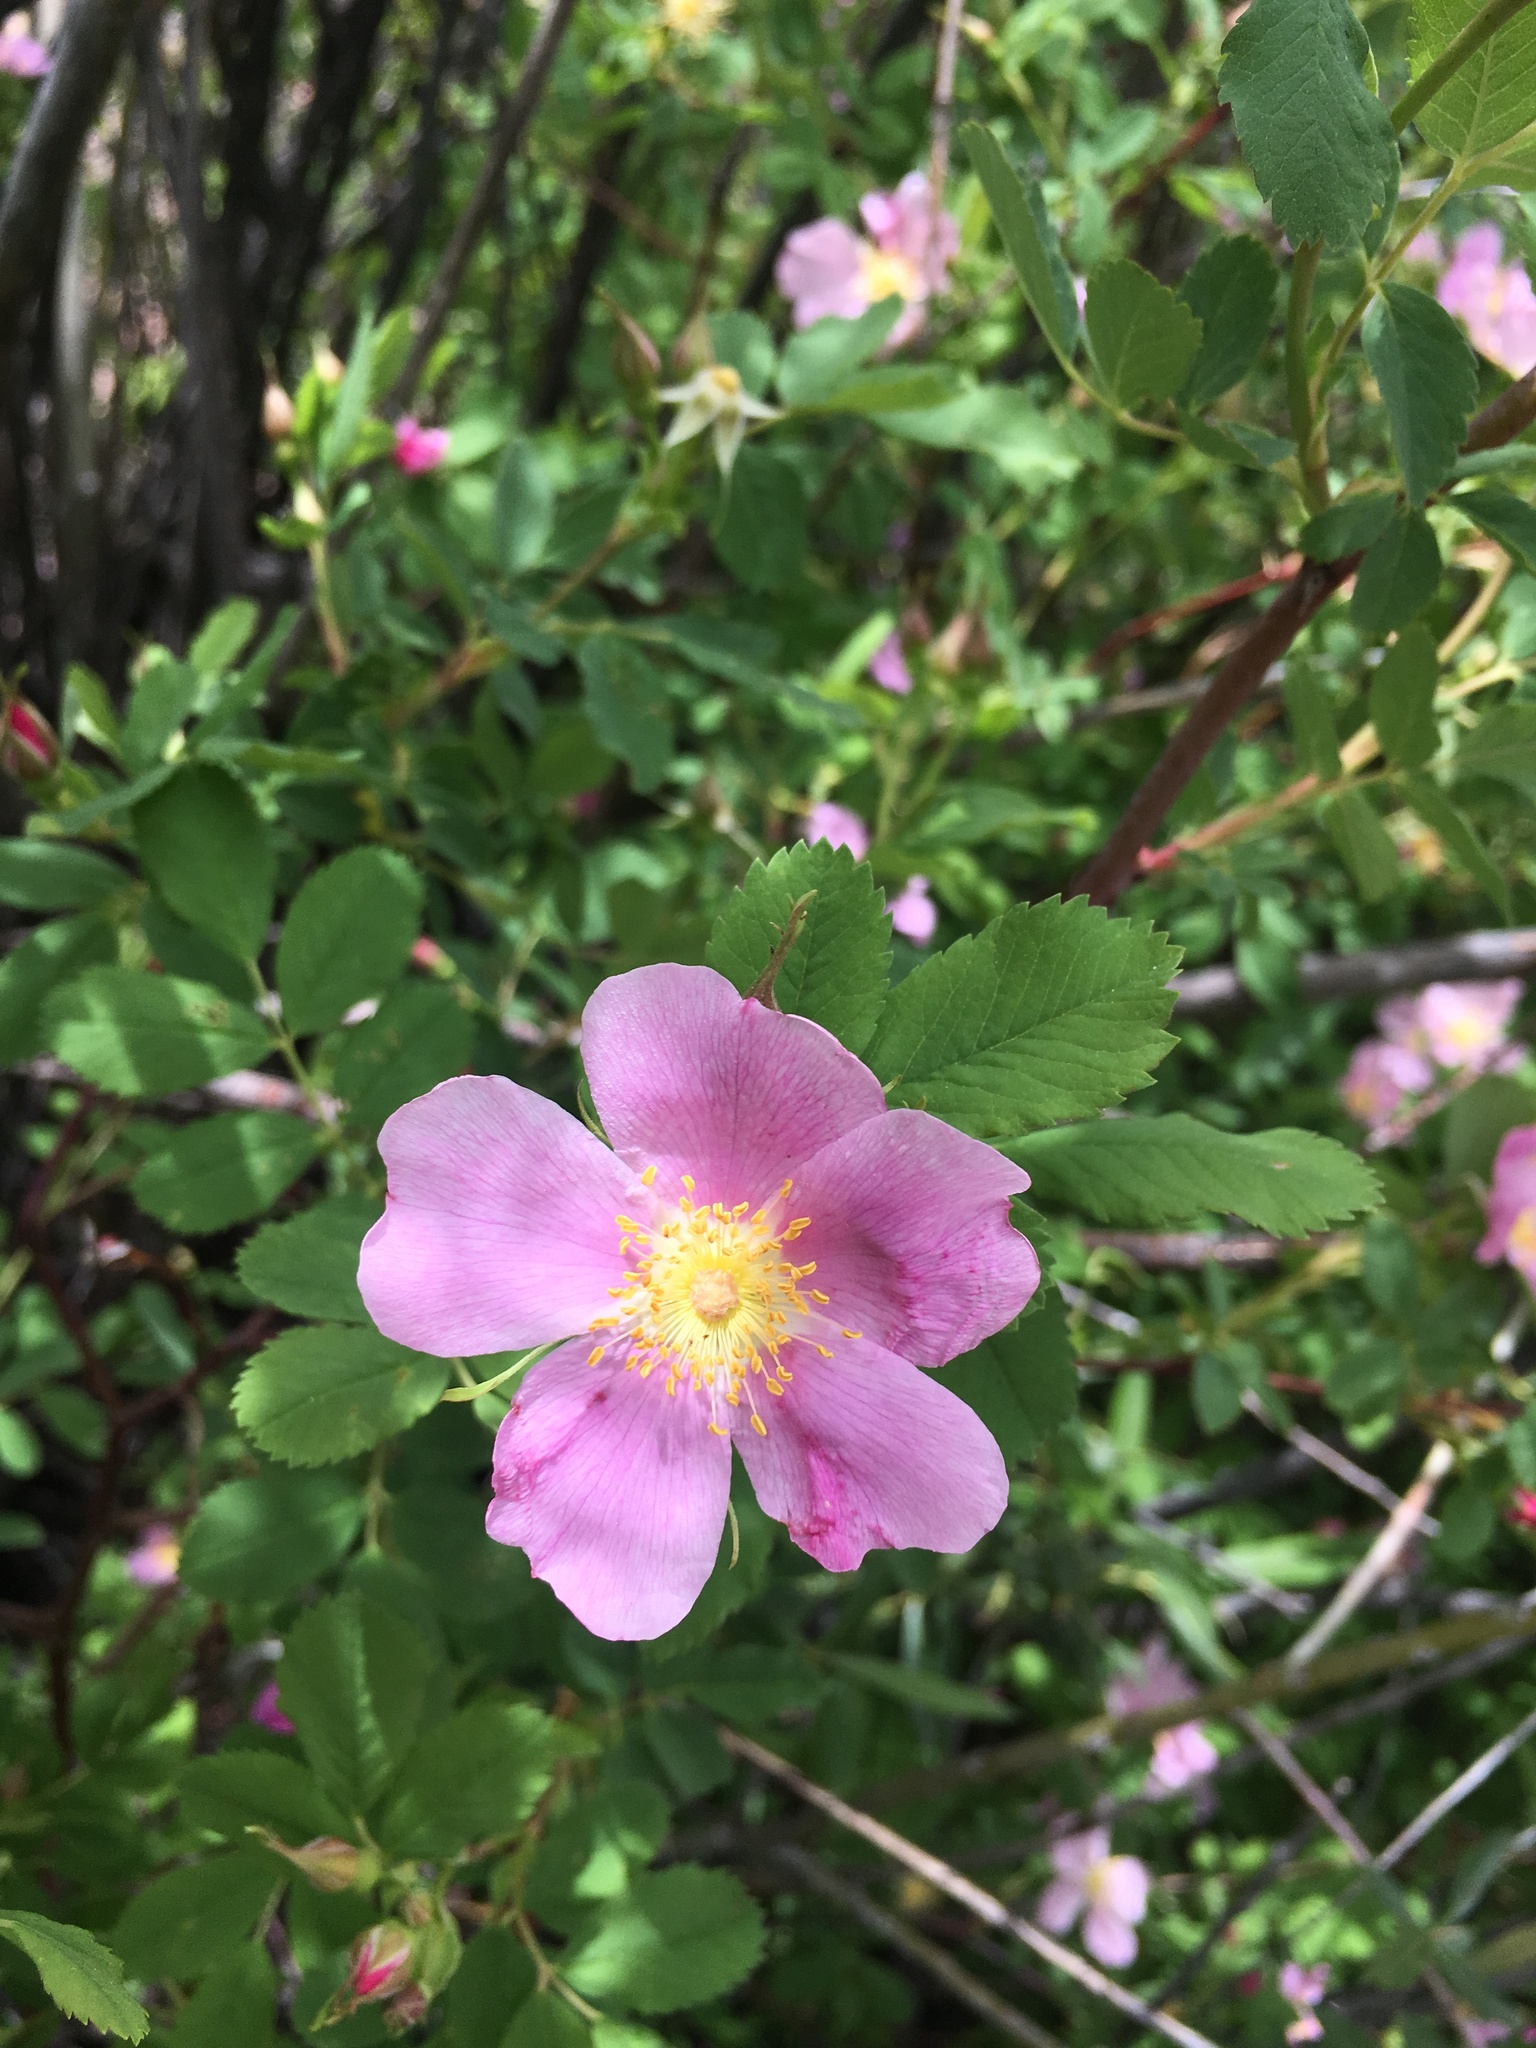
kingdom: Plantae
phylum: Tracheophyta
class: Magnoliopsida
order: Rosales
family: Rosaceae
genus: Rosa
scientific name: Rosa woodsii
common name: Woods's rose
